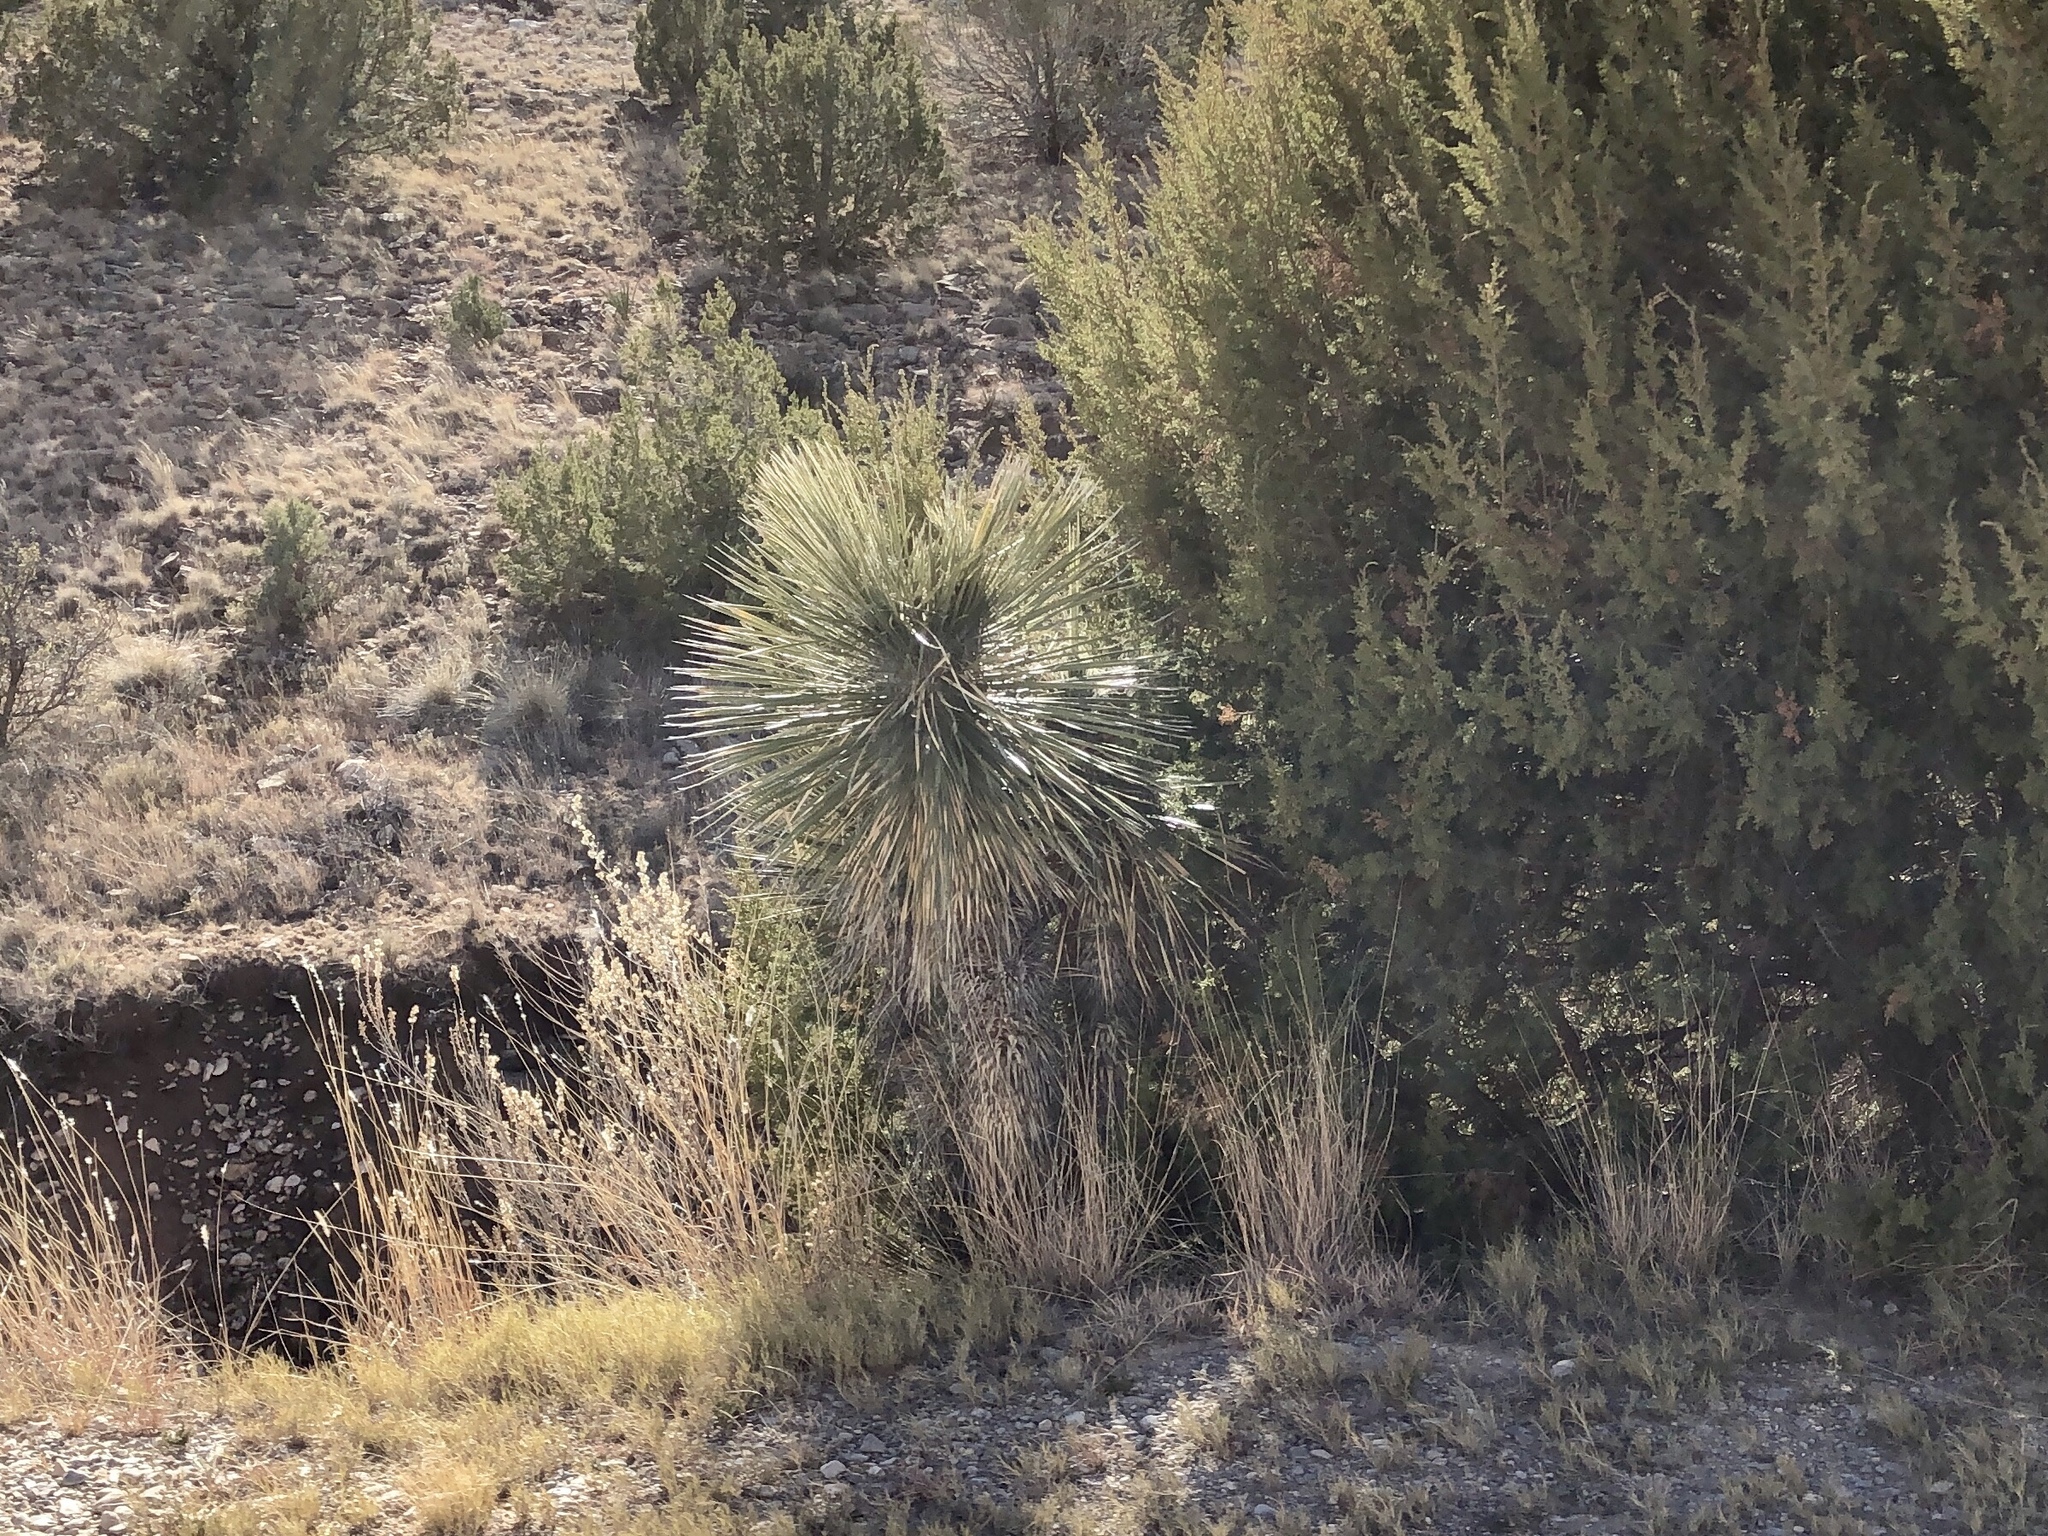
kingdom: Plantae
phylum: Tracheophyta
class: Liliopsida
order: Asparagales
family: Asparagaceae
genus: Yucca
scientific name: Yucca elata
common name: Palmella
